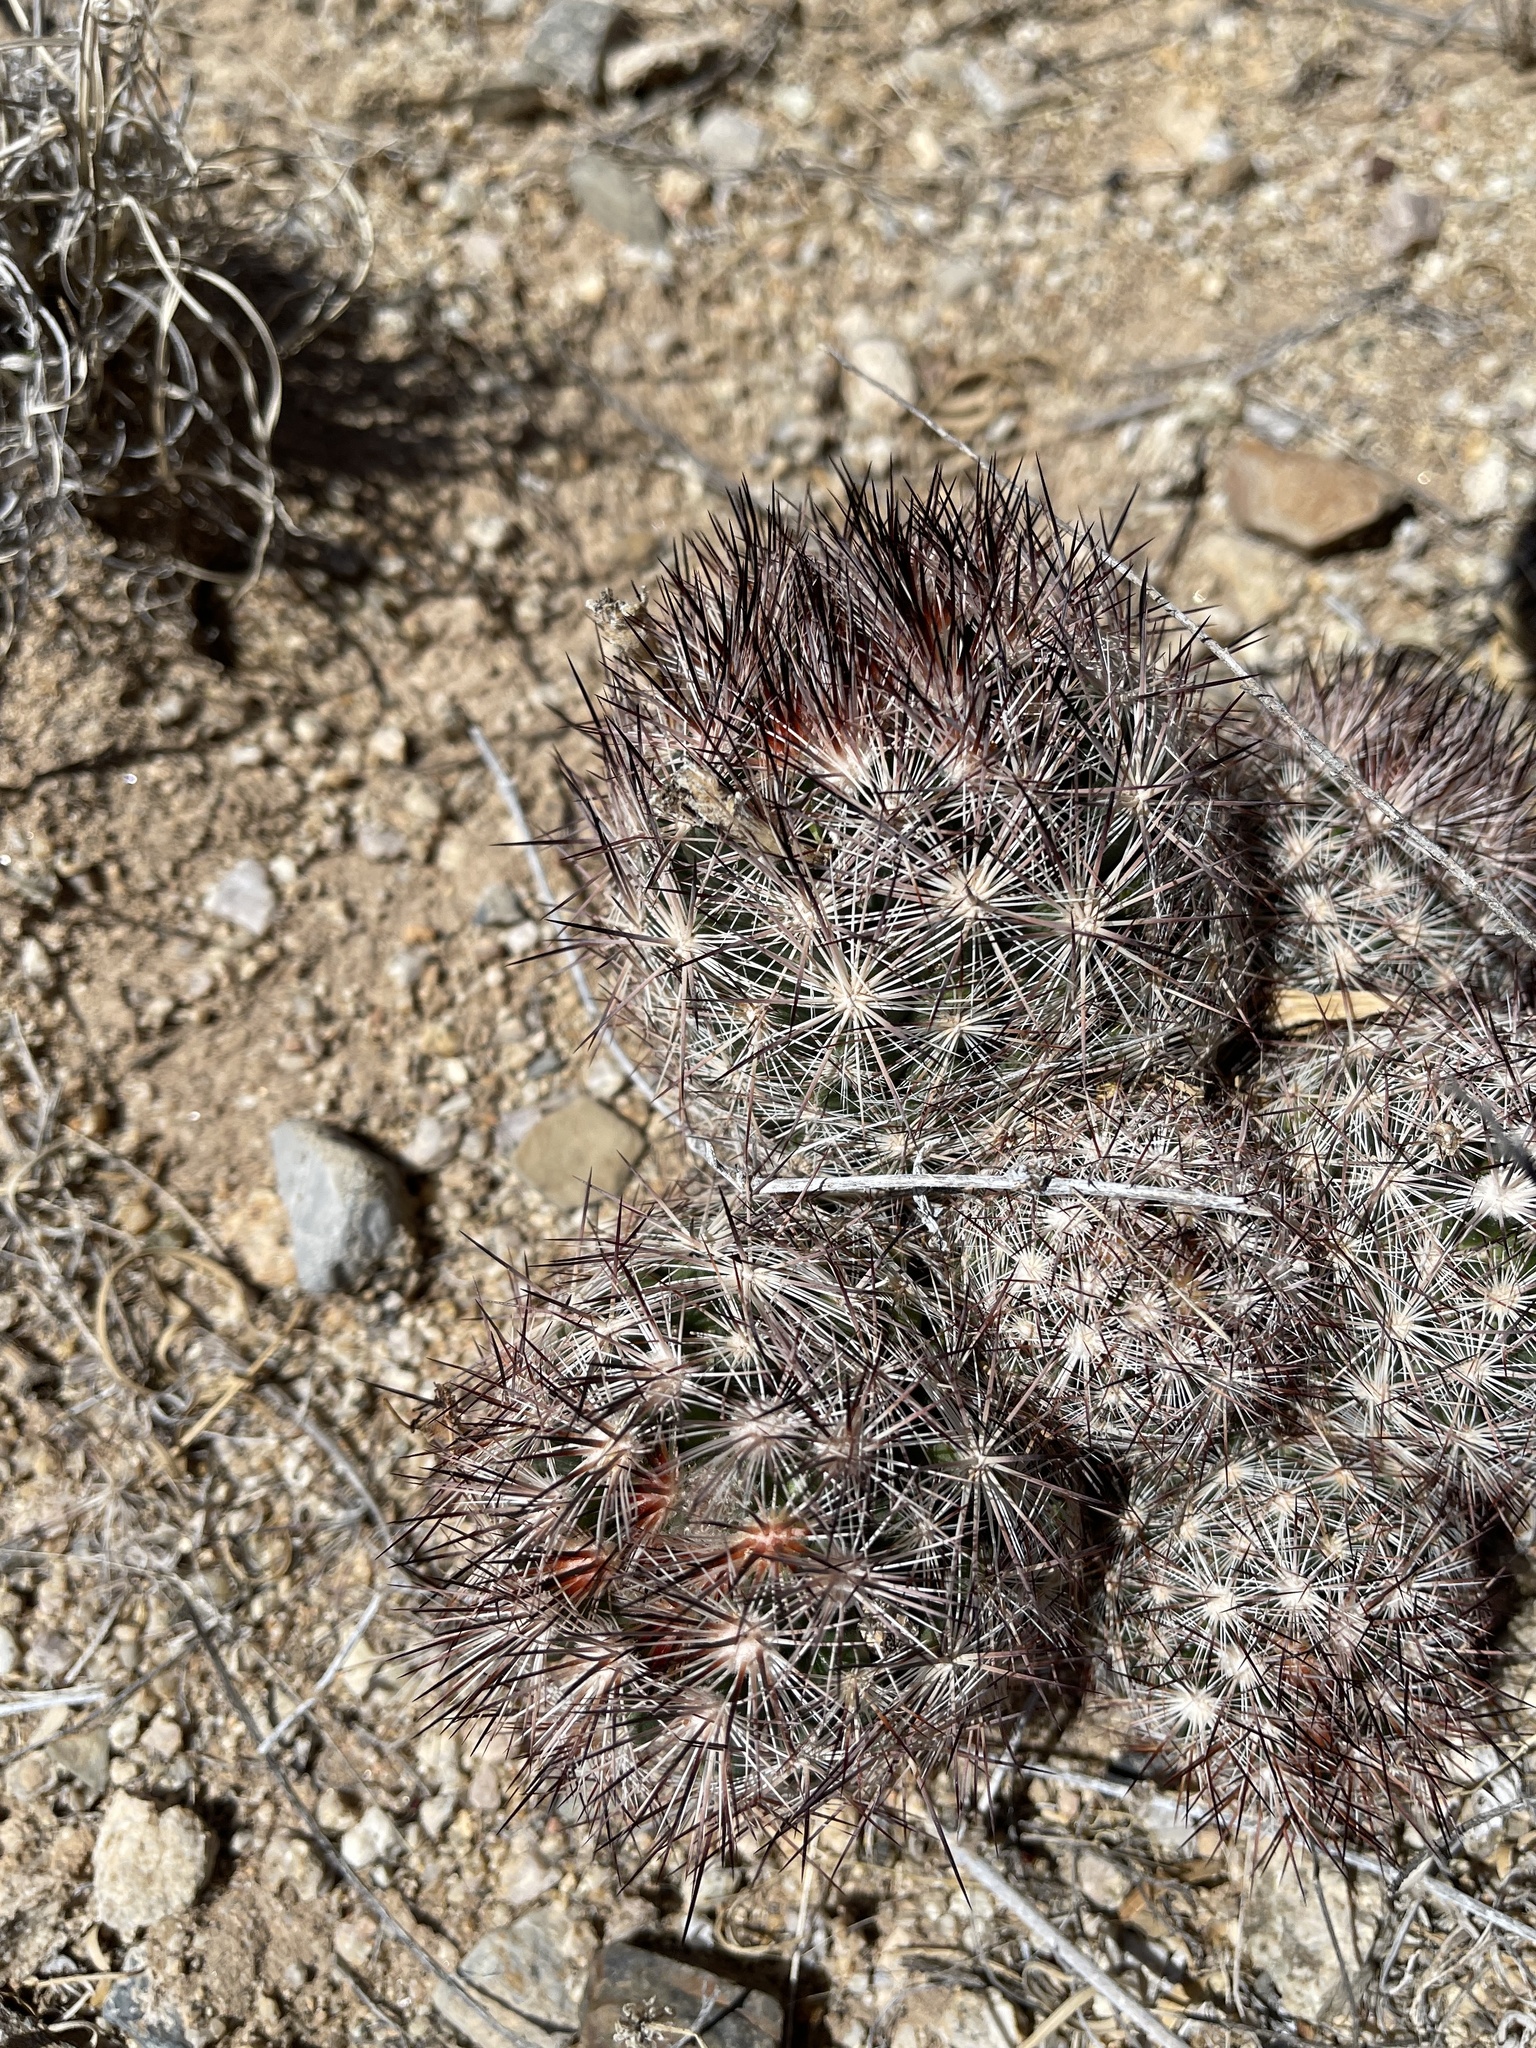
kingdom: Plantae
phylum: Tracheophyta
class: Magnoliopsida
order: Caryophyllales
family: Cactaceae
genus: Pelecyphora
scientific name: Pelecyphora vivipara
